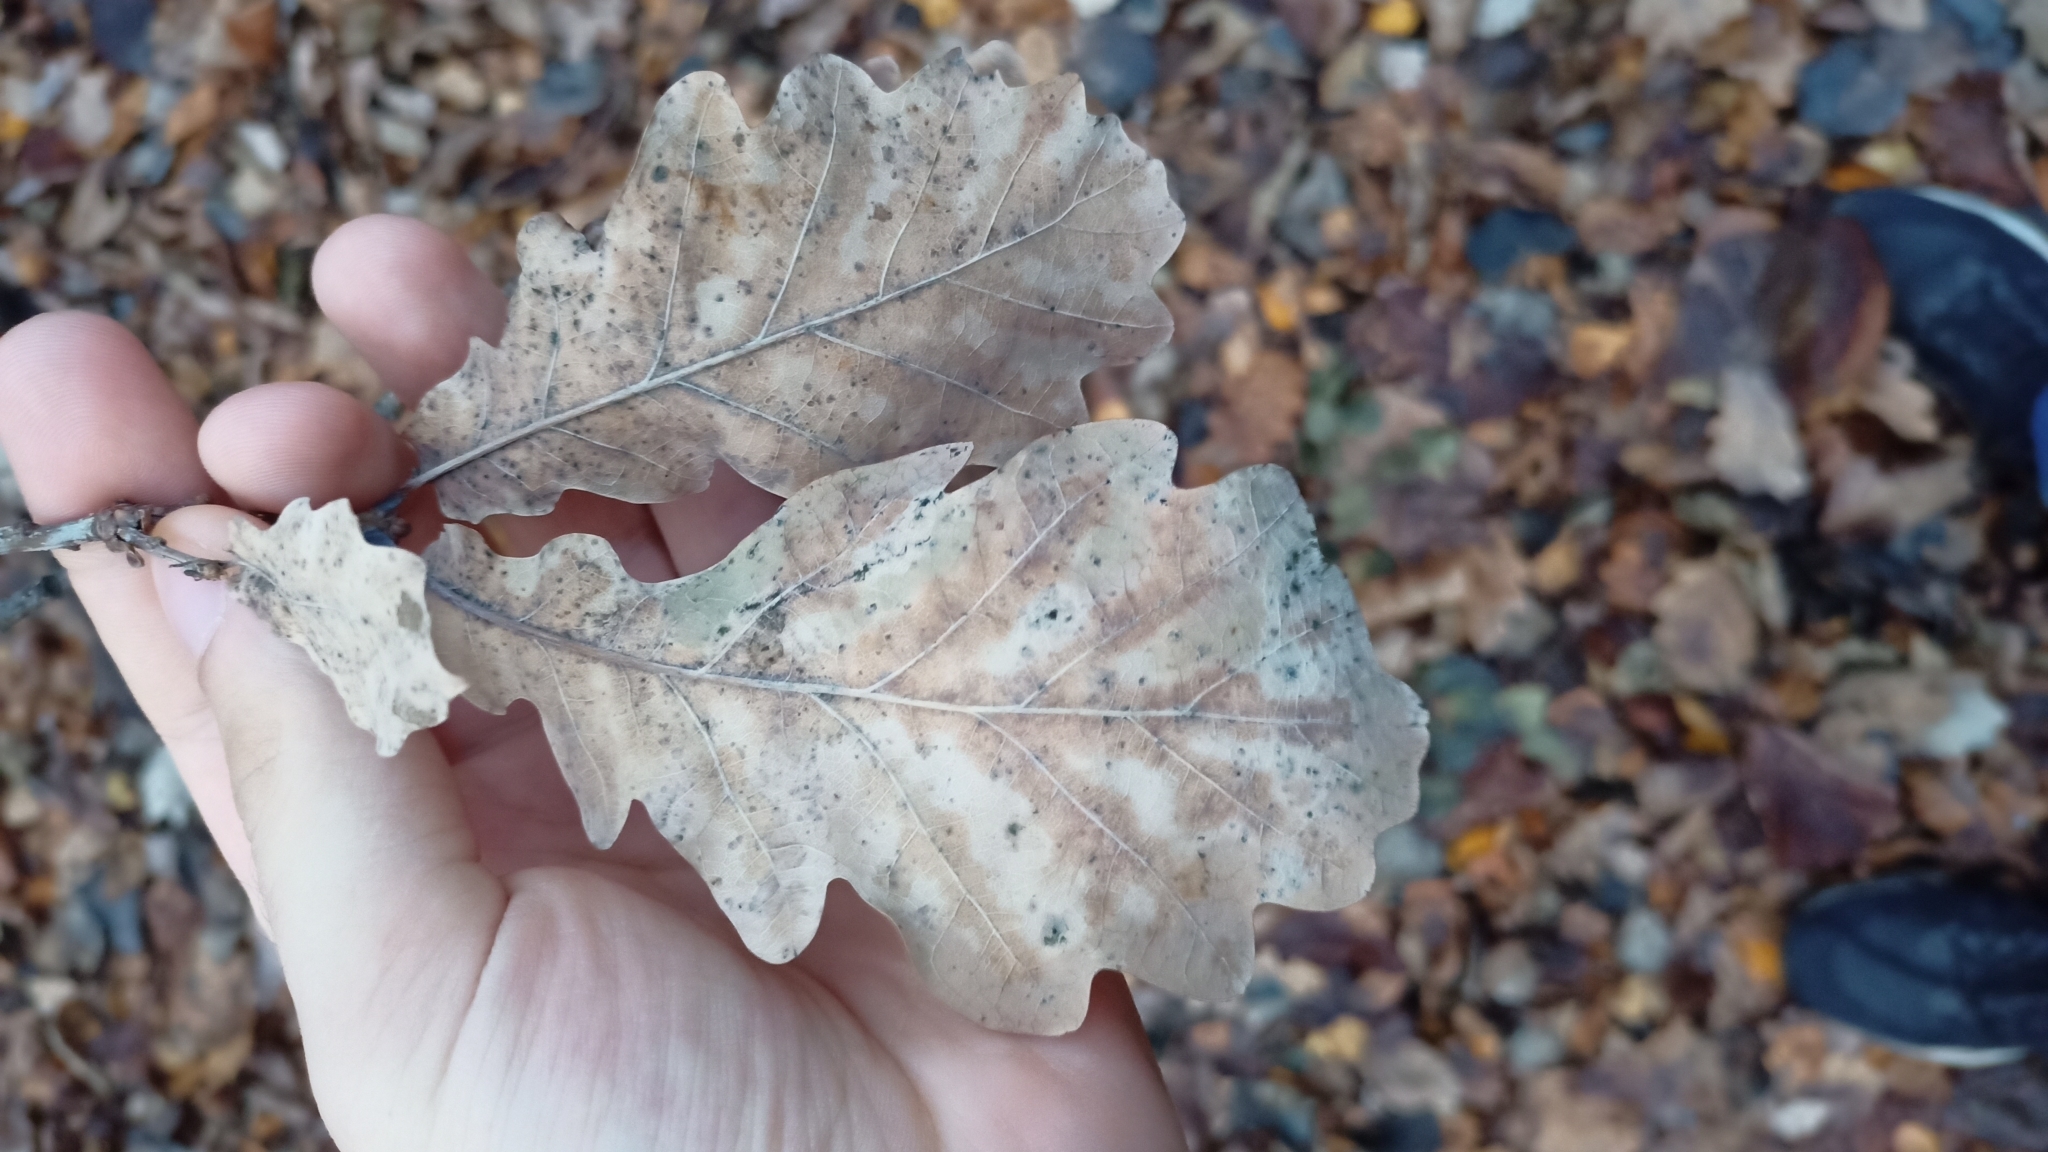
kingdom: Plantae
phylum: Tracheophyta
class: Magnoliopsida
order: Fagales
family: Fagaceae
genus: Quercus
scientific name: Quercus robur
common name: Pedunculate oak
